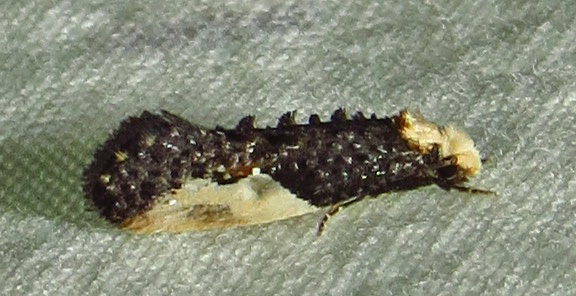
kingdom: Animalia
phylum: Arthropoda
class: Insecta
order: Lepidoptera
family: Tineidae
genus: Monopis
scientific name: Monopis longella
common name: Pavlovski's monopis moth
